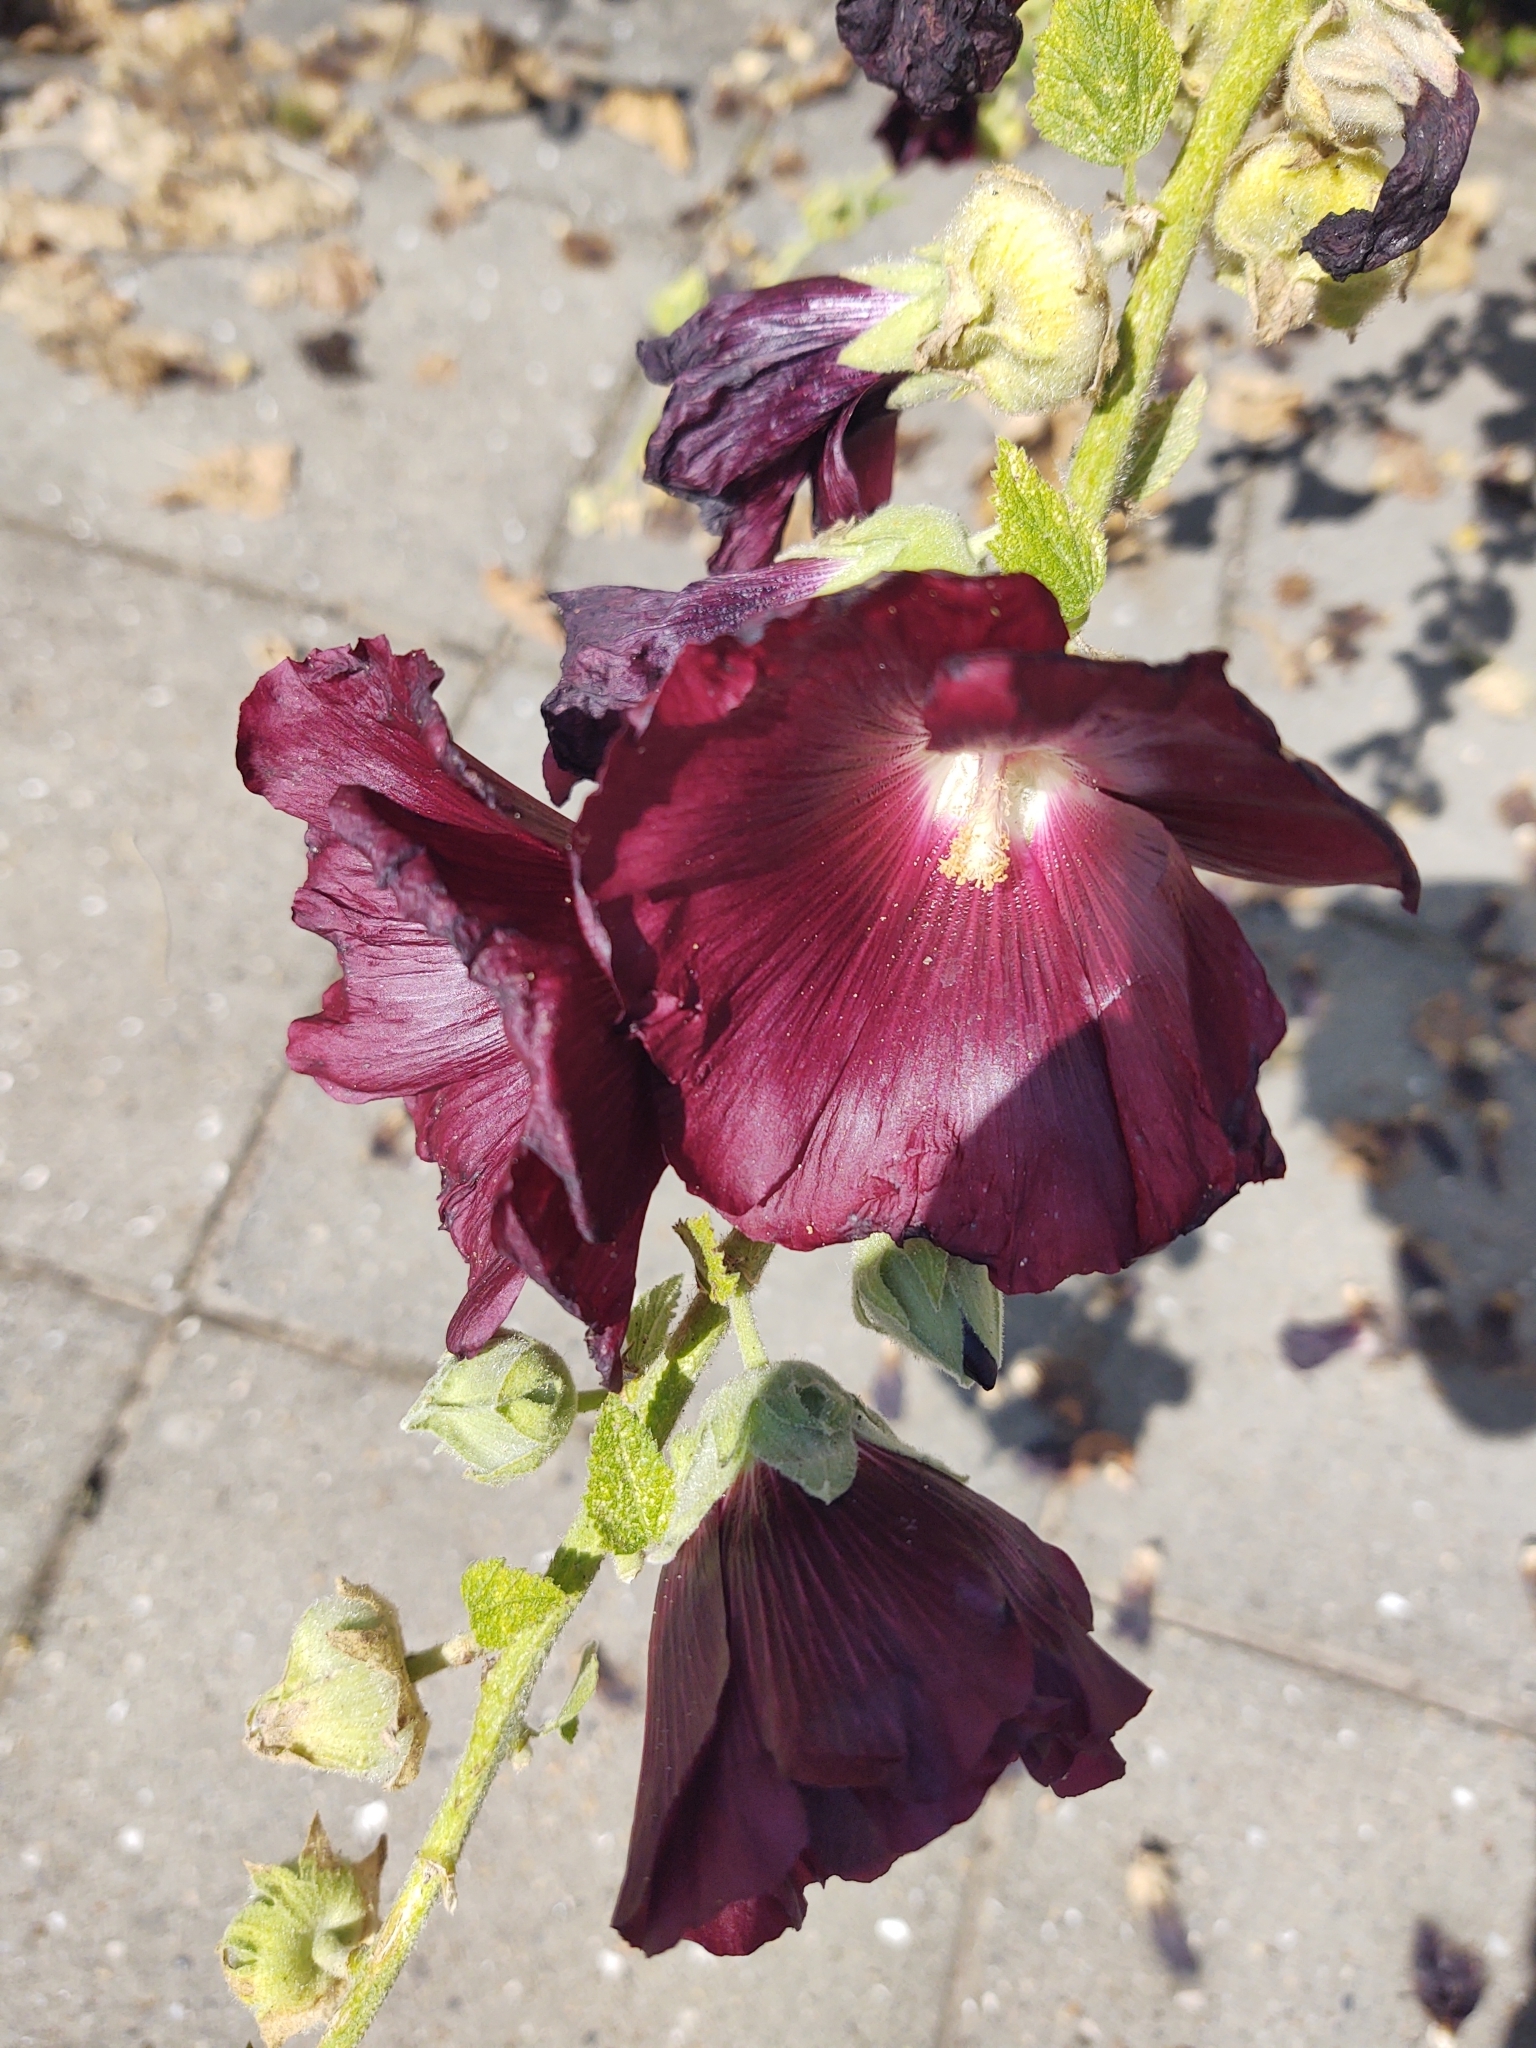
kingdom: Plantae
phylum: Tracheophyta
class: Magnoliopsida
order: Malvales
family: Malvaceae
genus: Alcea
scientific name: Alcea rosea
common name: Hollyhock
